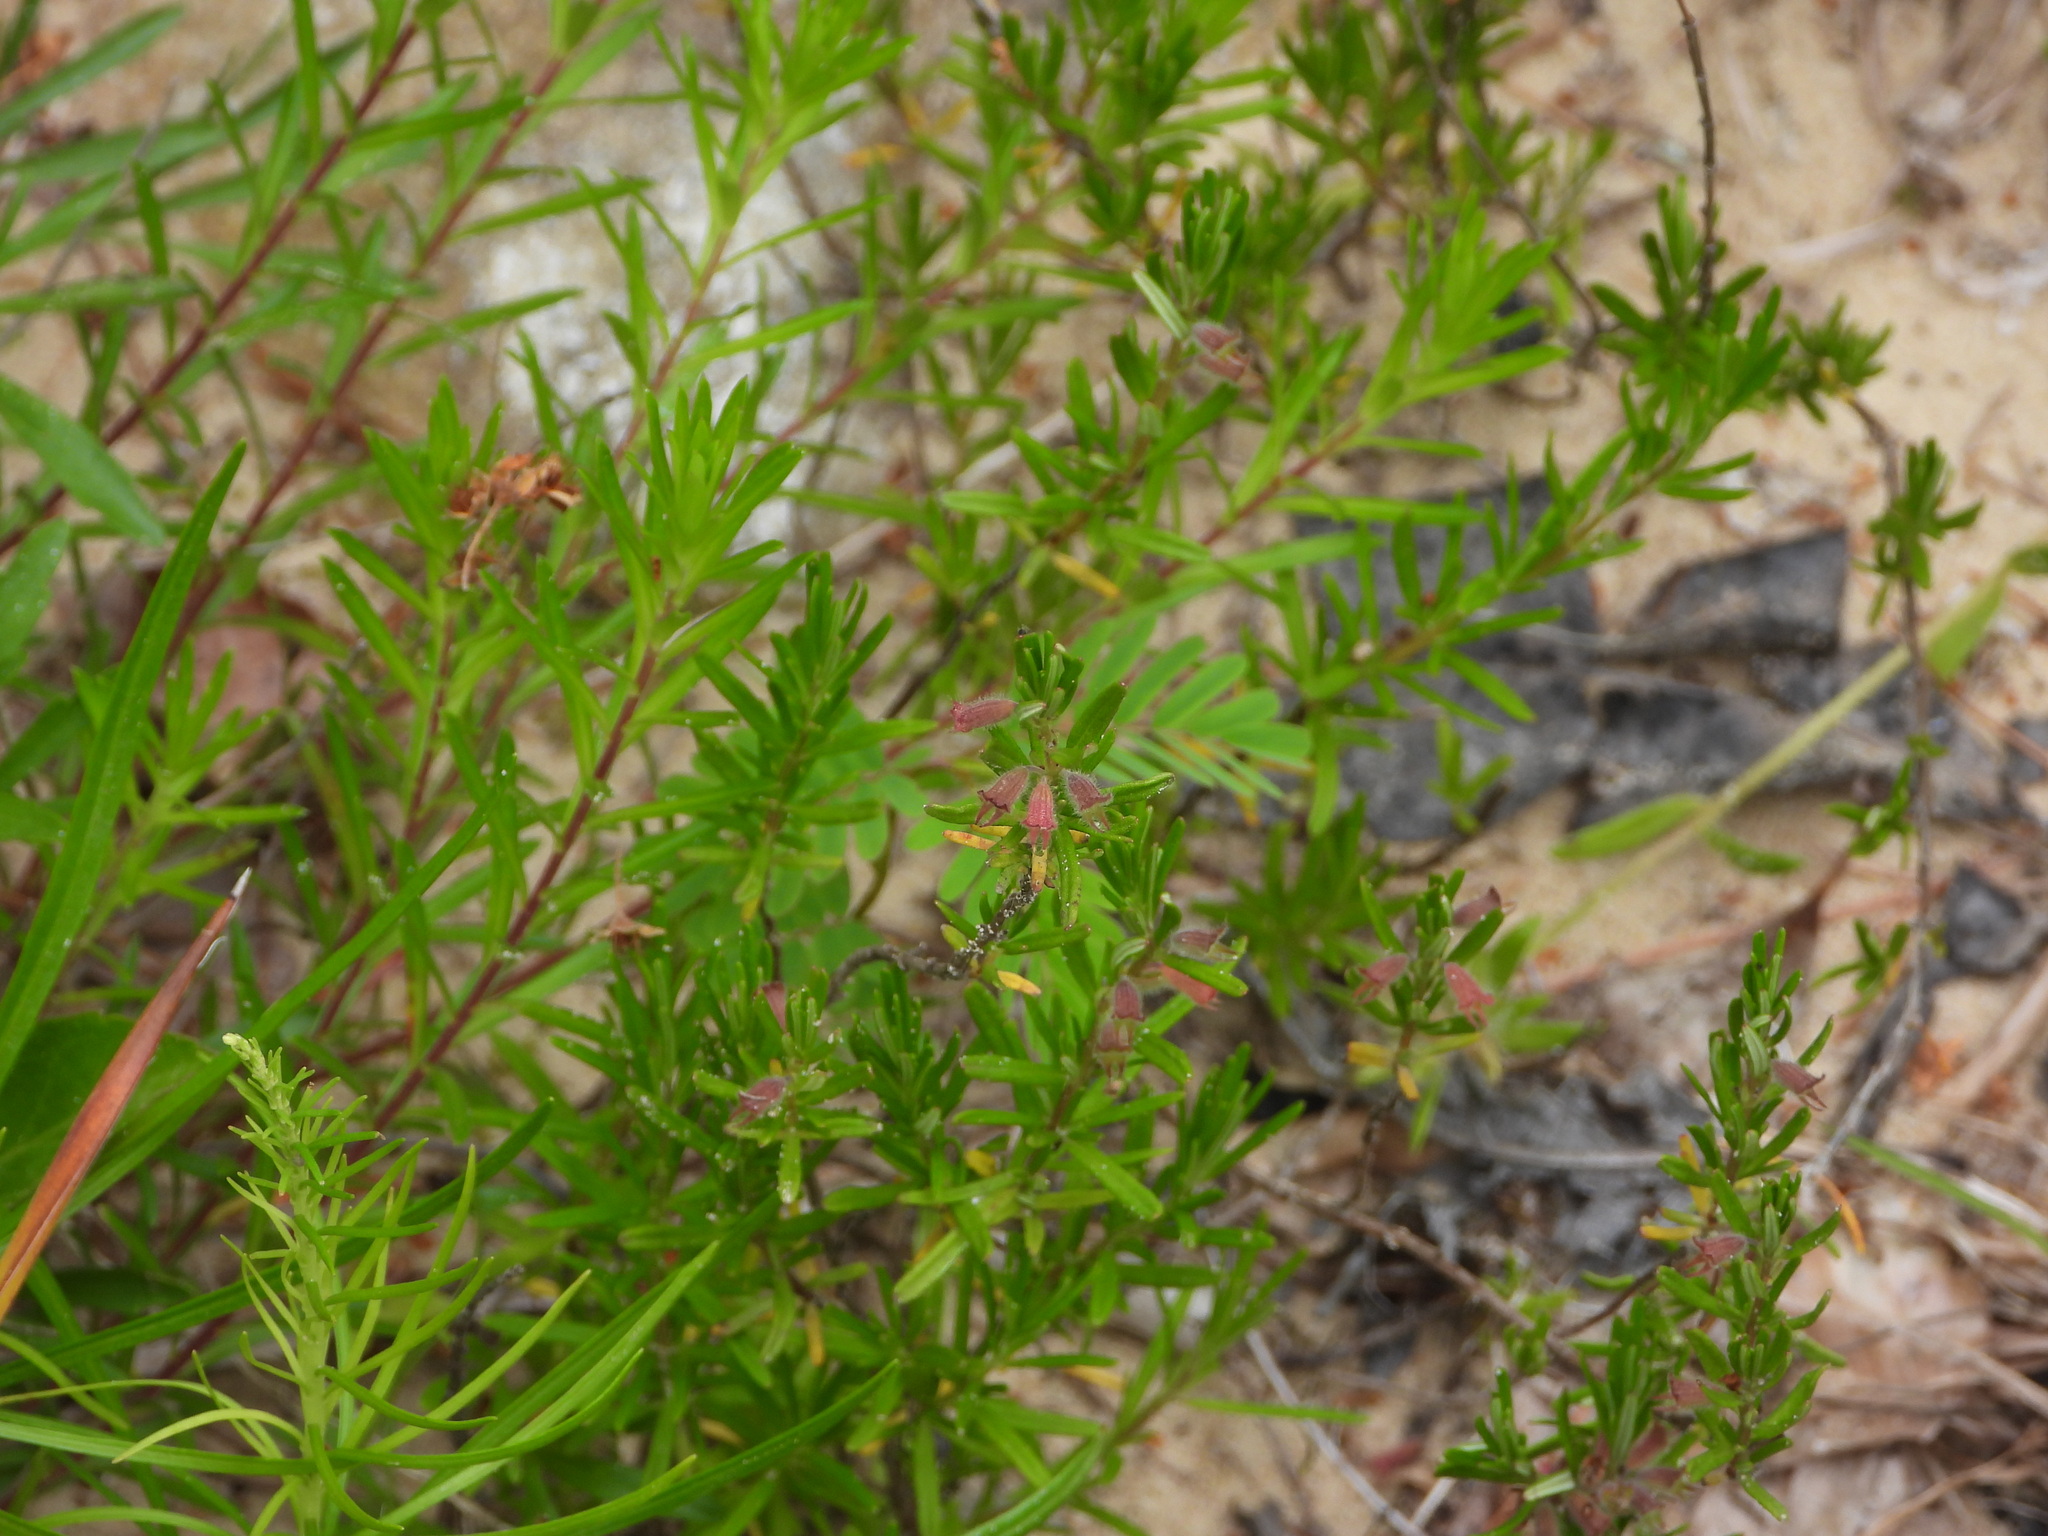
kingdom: Plantae
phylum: Tracheophyta
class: Magnoliopsida
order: Lamiales
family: Lamiaceae
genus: Conradina
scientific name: Conradina verticillata
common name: Cumberland-rosemary
